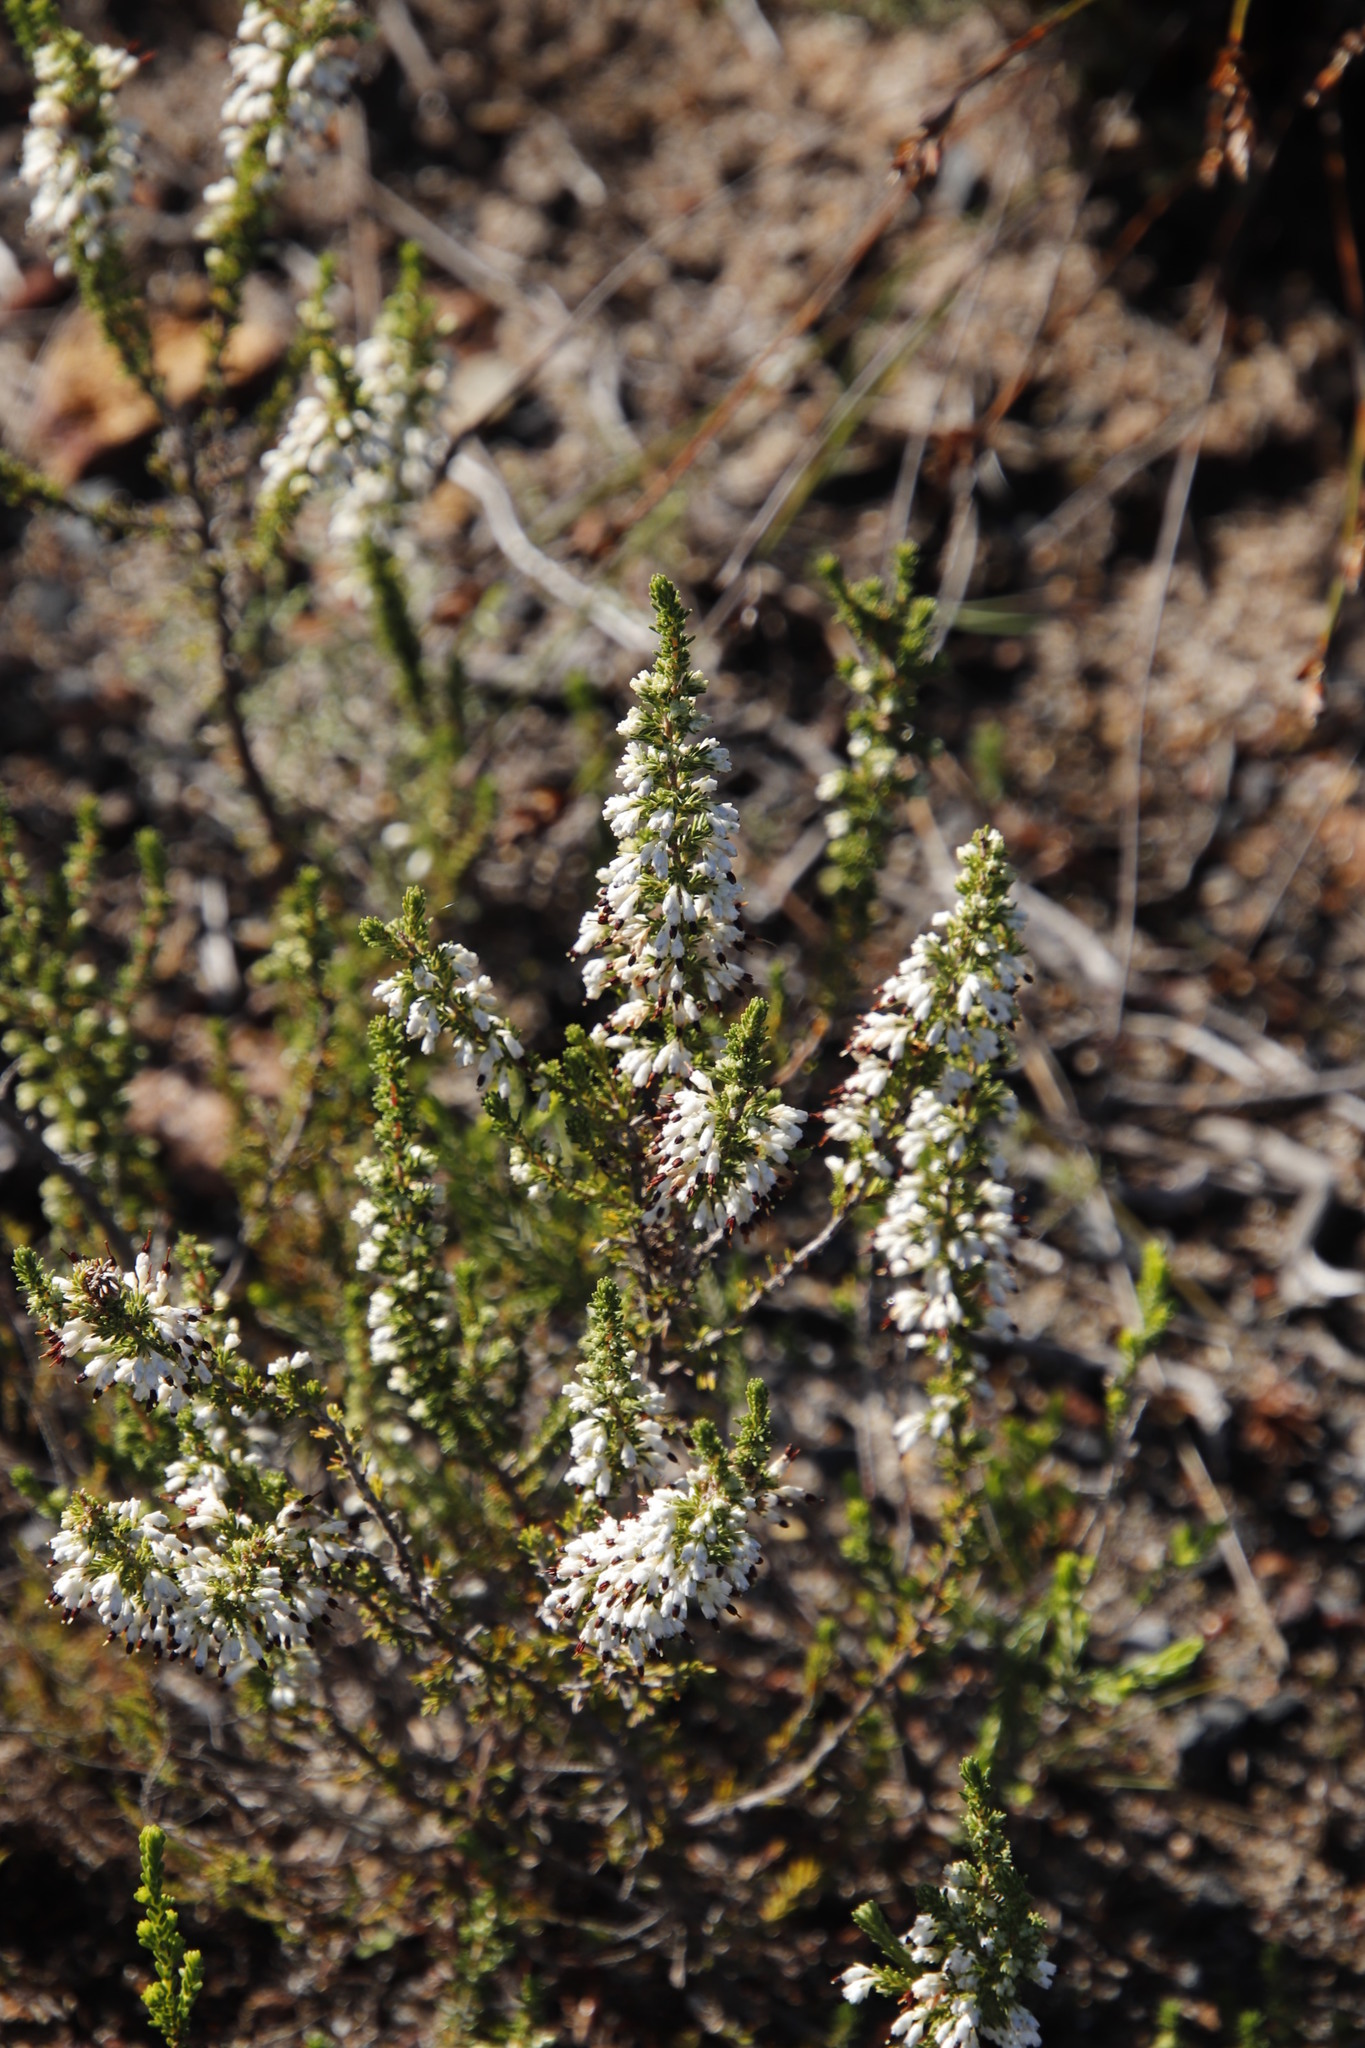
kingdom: Plantae
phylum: Tracheophyta
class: Magnoliopsida
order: Ericales
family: Ericaceae
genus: Erica
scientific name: Erica imbricata
